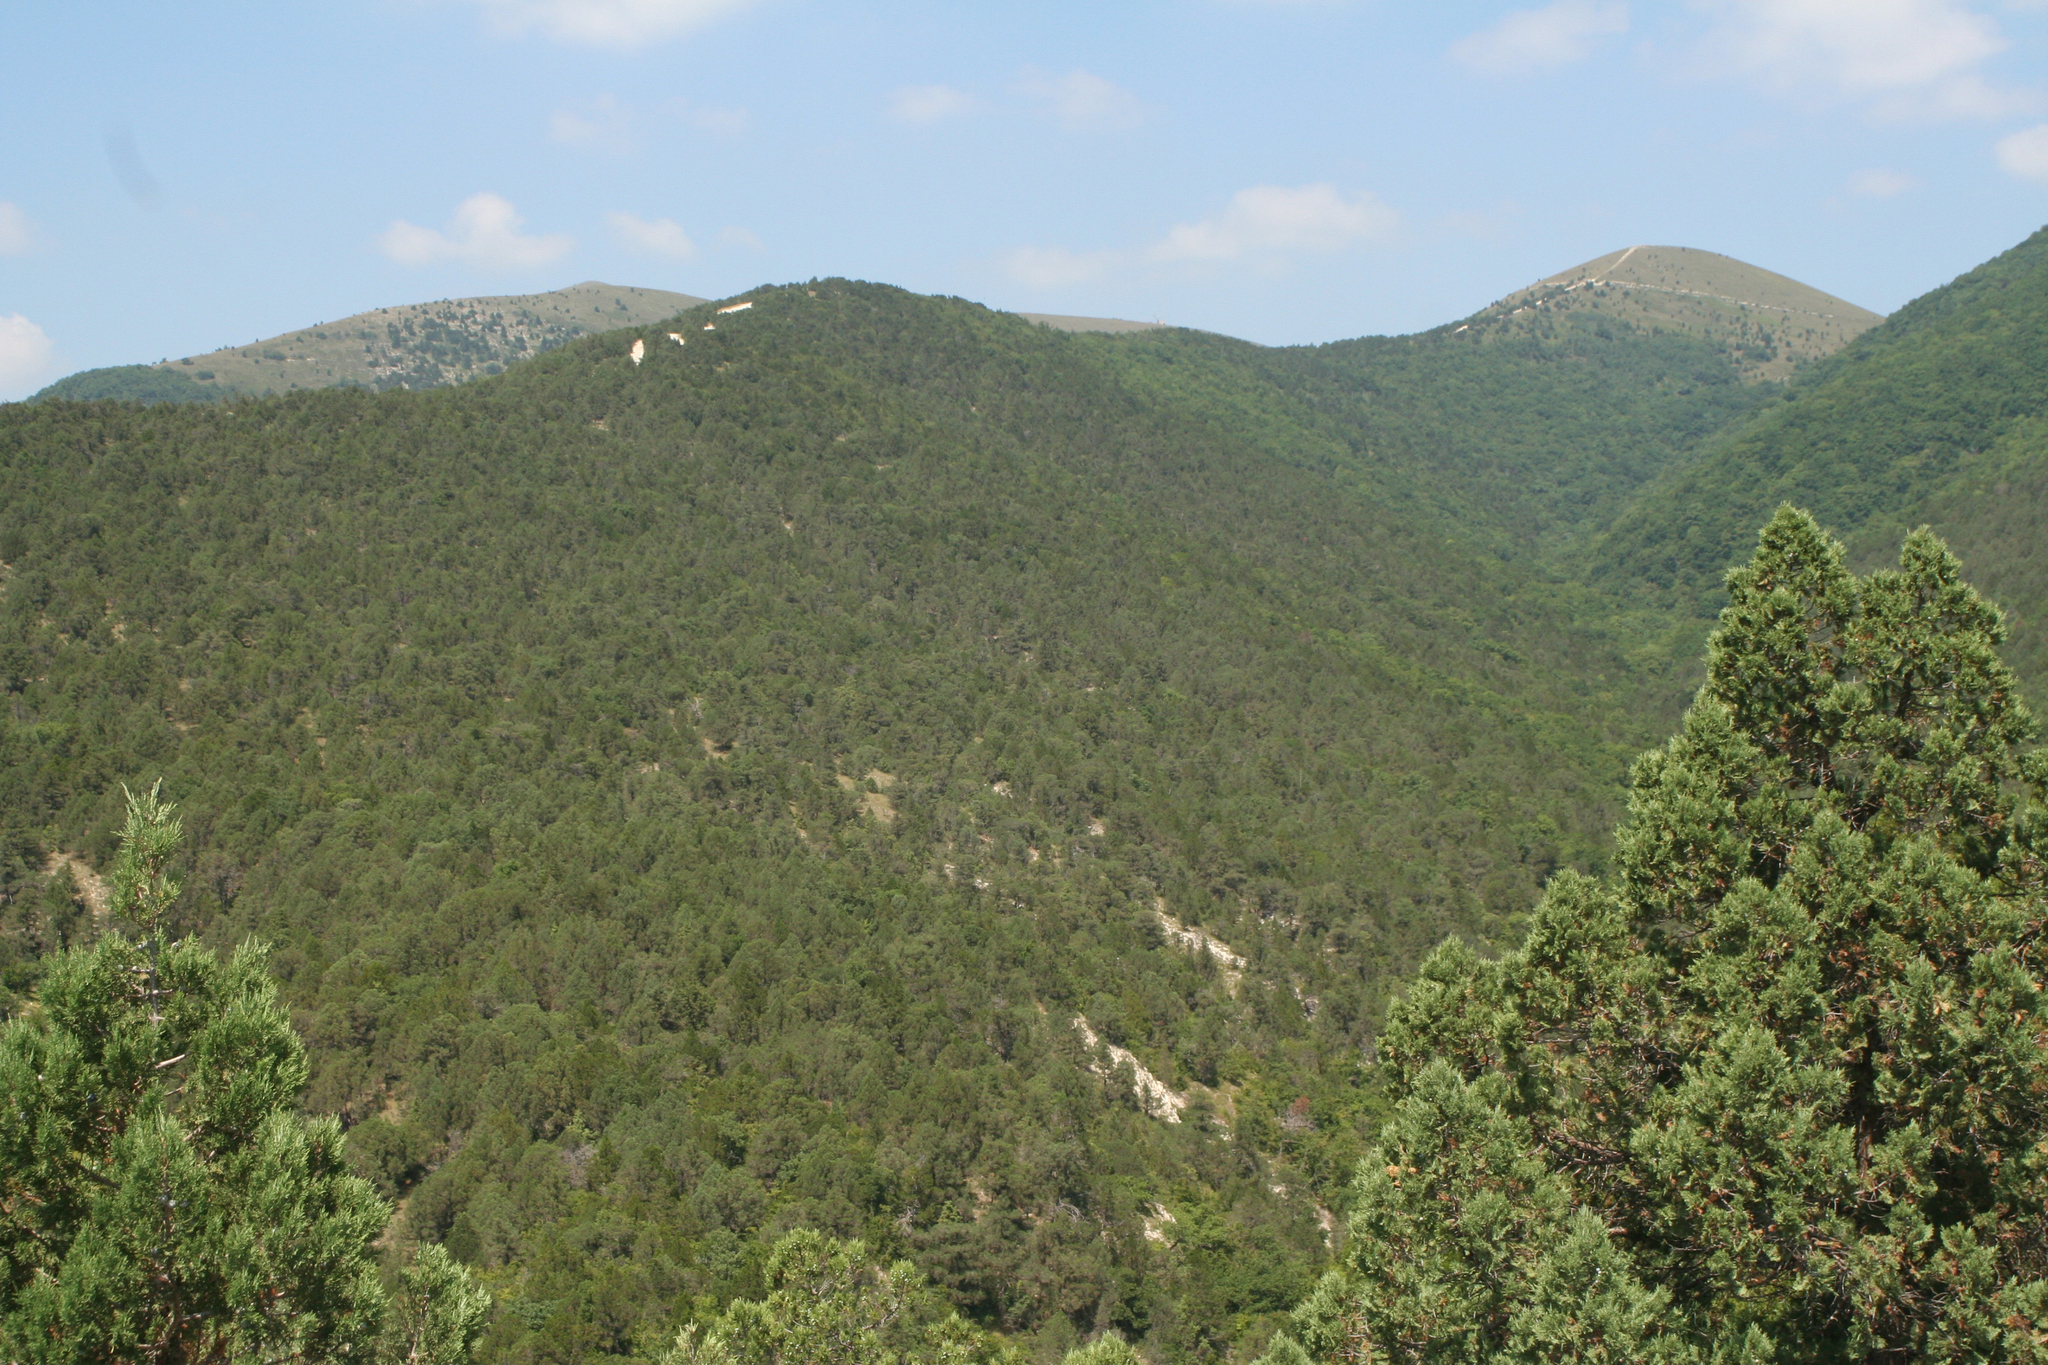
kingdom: Plantae
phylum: Tracheophyta
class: Pinopsida
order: Pinales
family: Cupressaceae
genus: Juniperus
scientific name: Juniperus excelsa
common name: Crimean juniper
